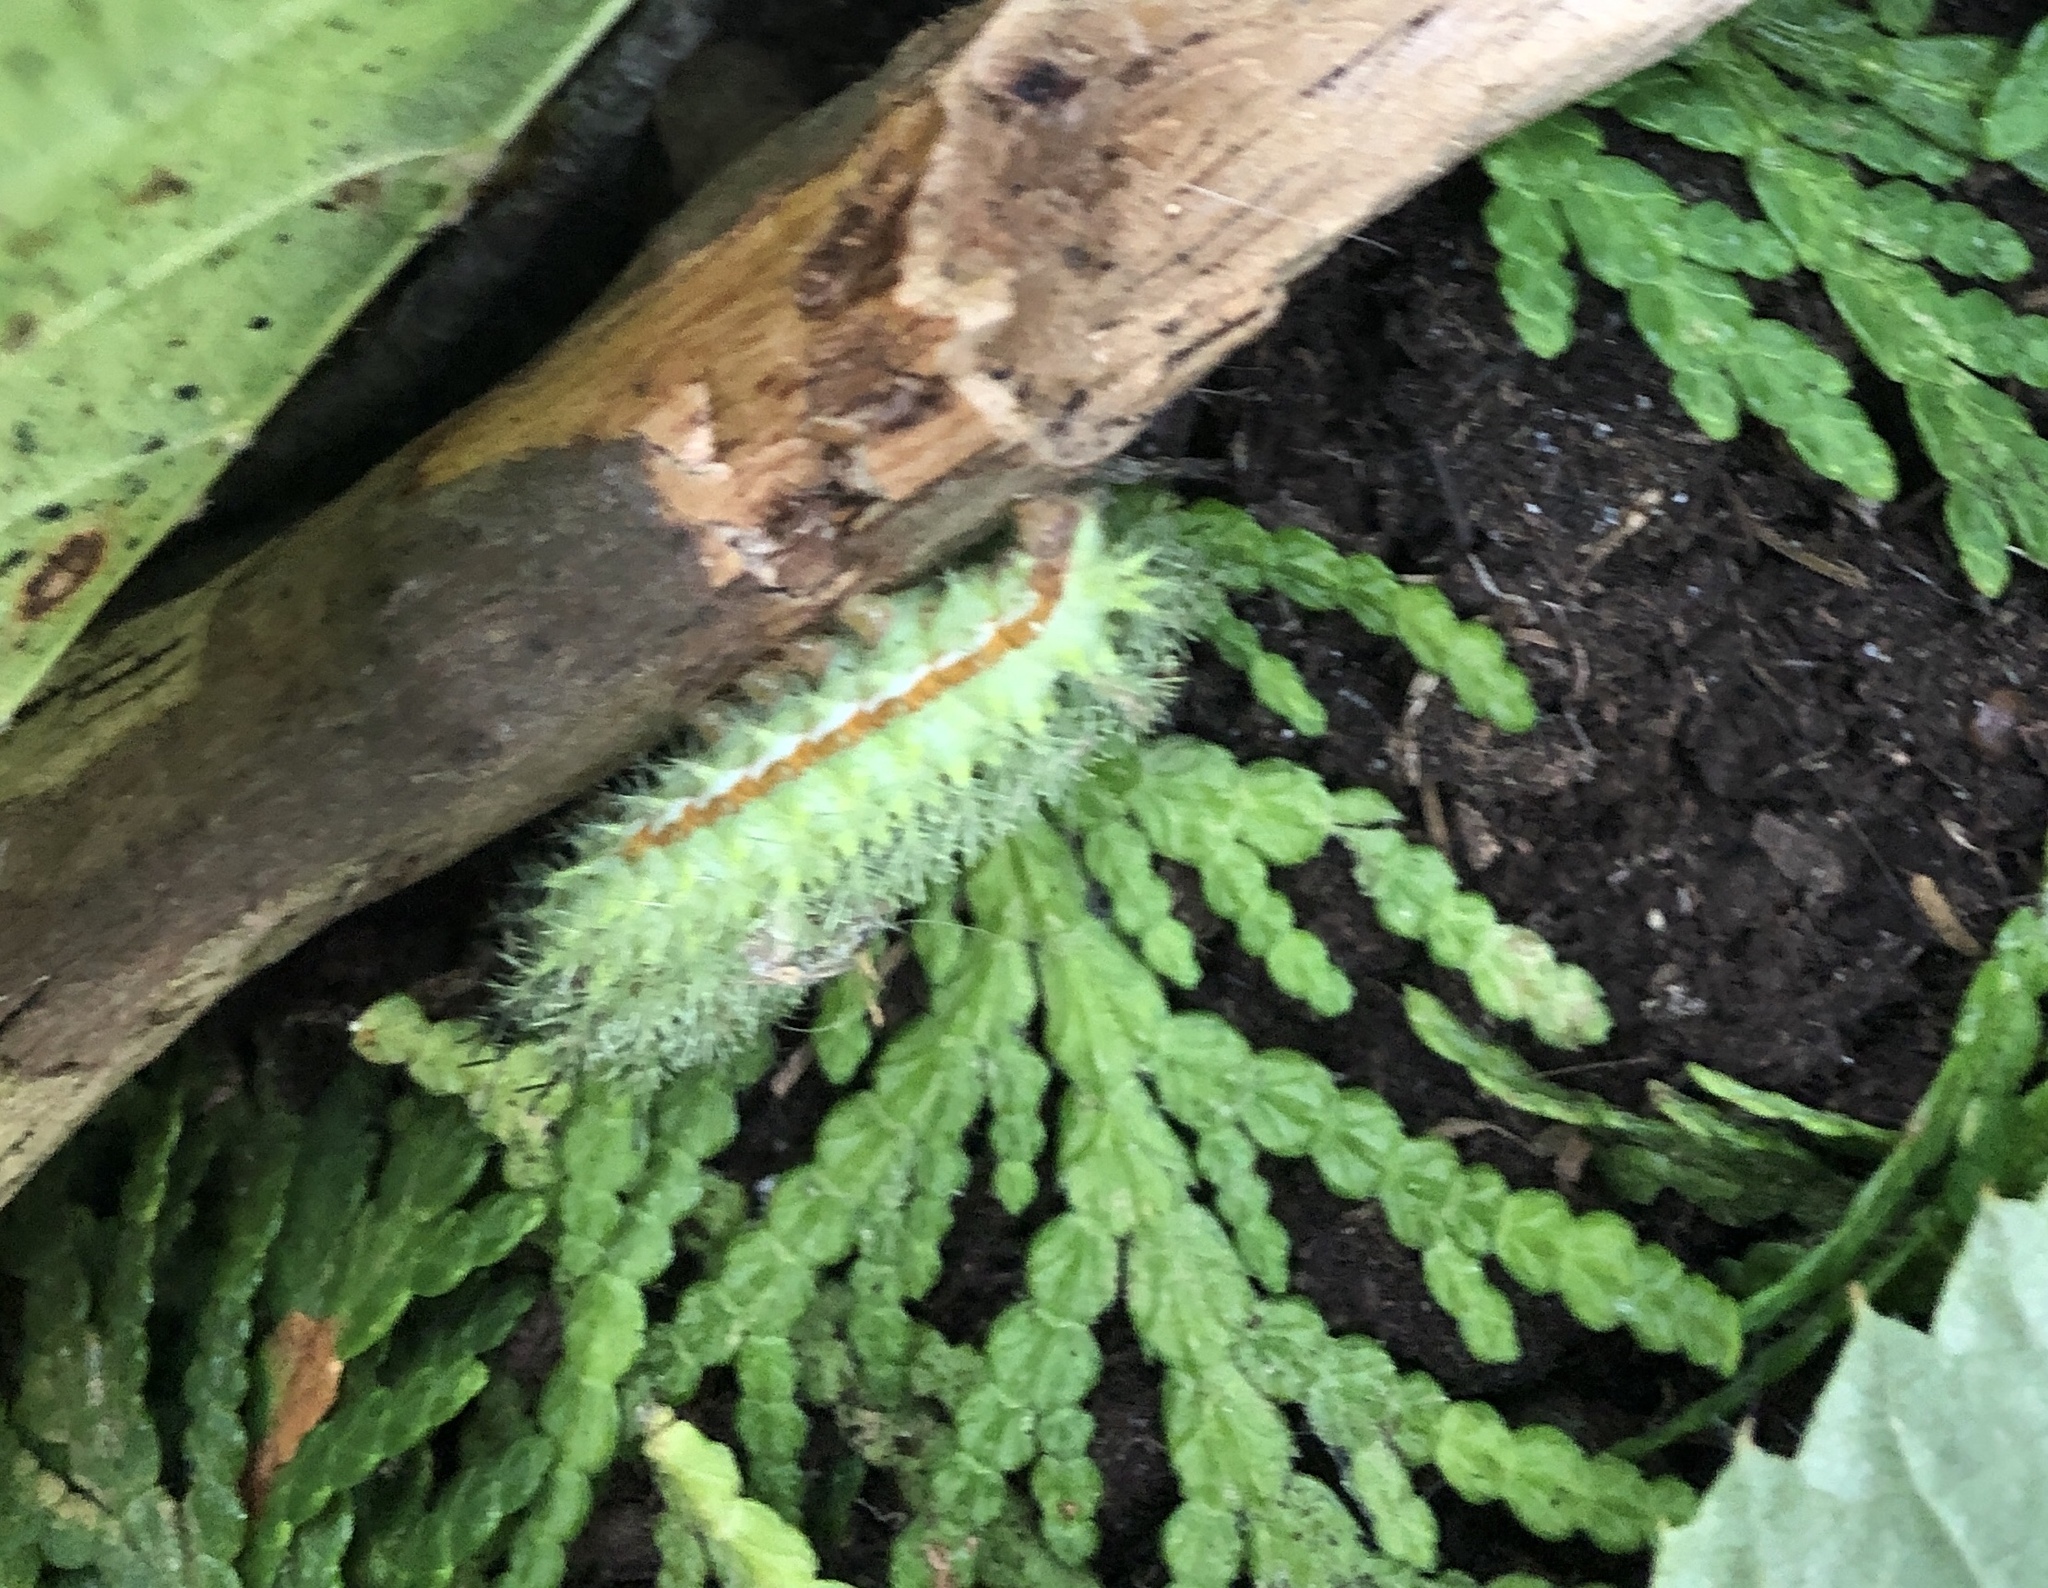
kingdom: Animalia
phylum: Arthropoda
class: Insecta
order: Lepidoptera
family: Saturniidae
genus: Automeris
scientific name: Automeris io
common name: Io moth
